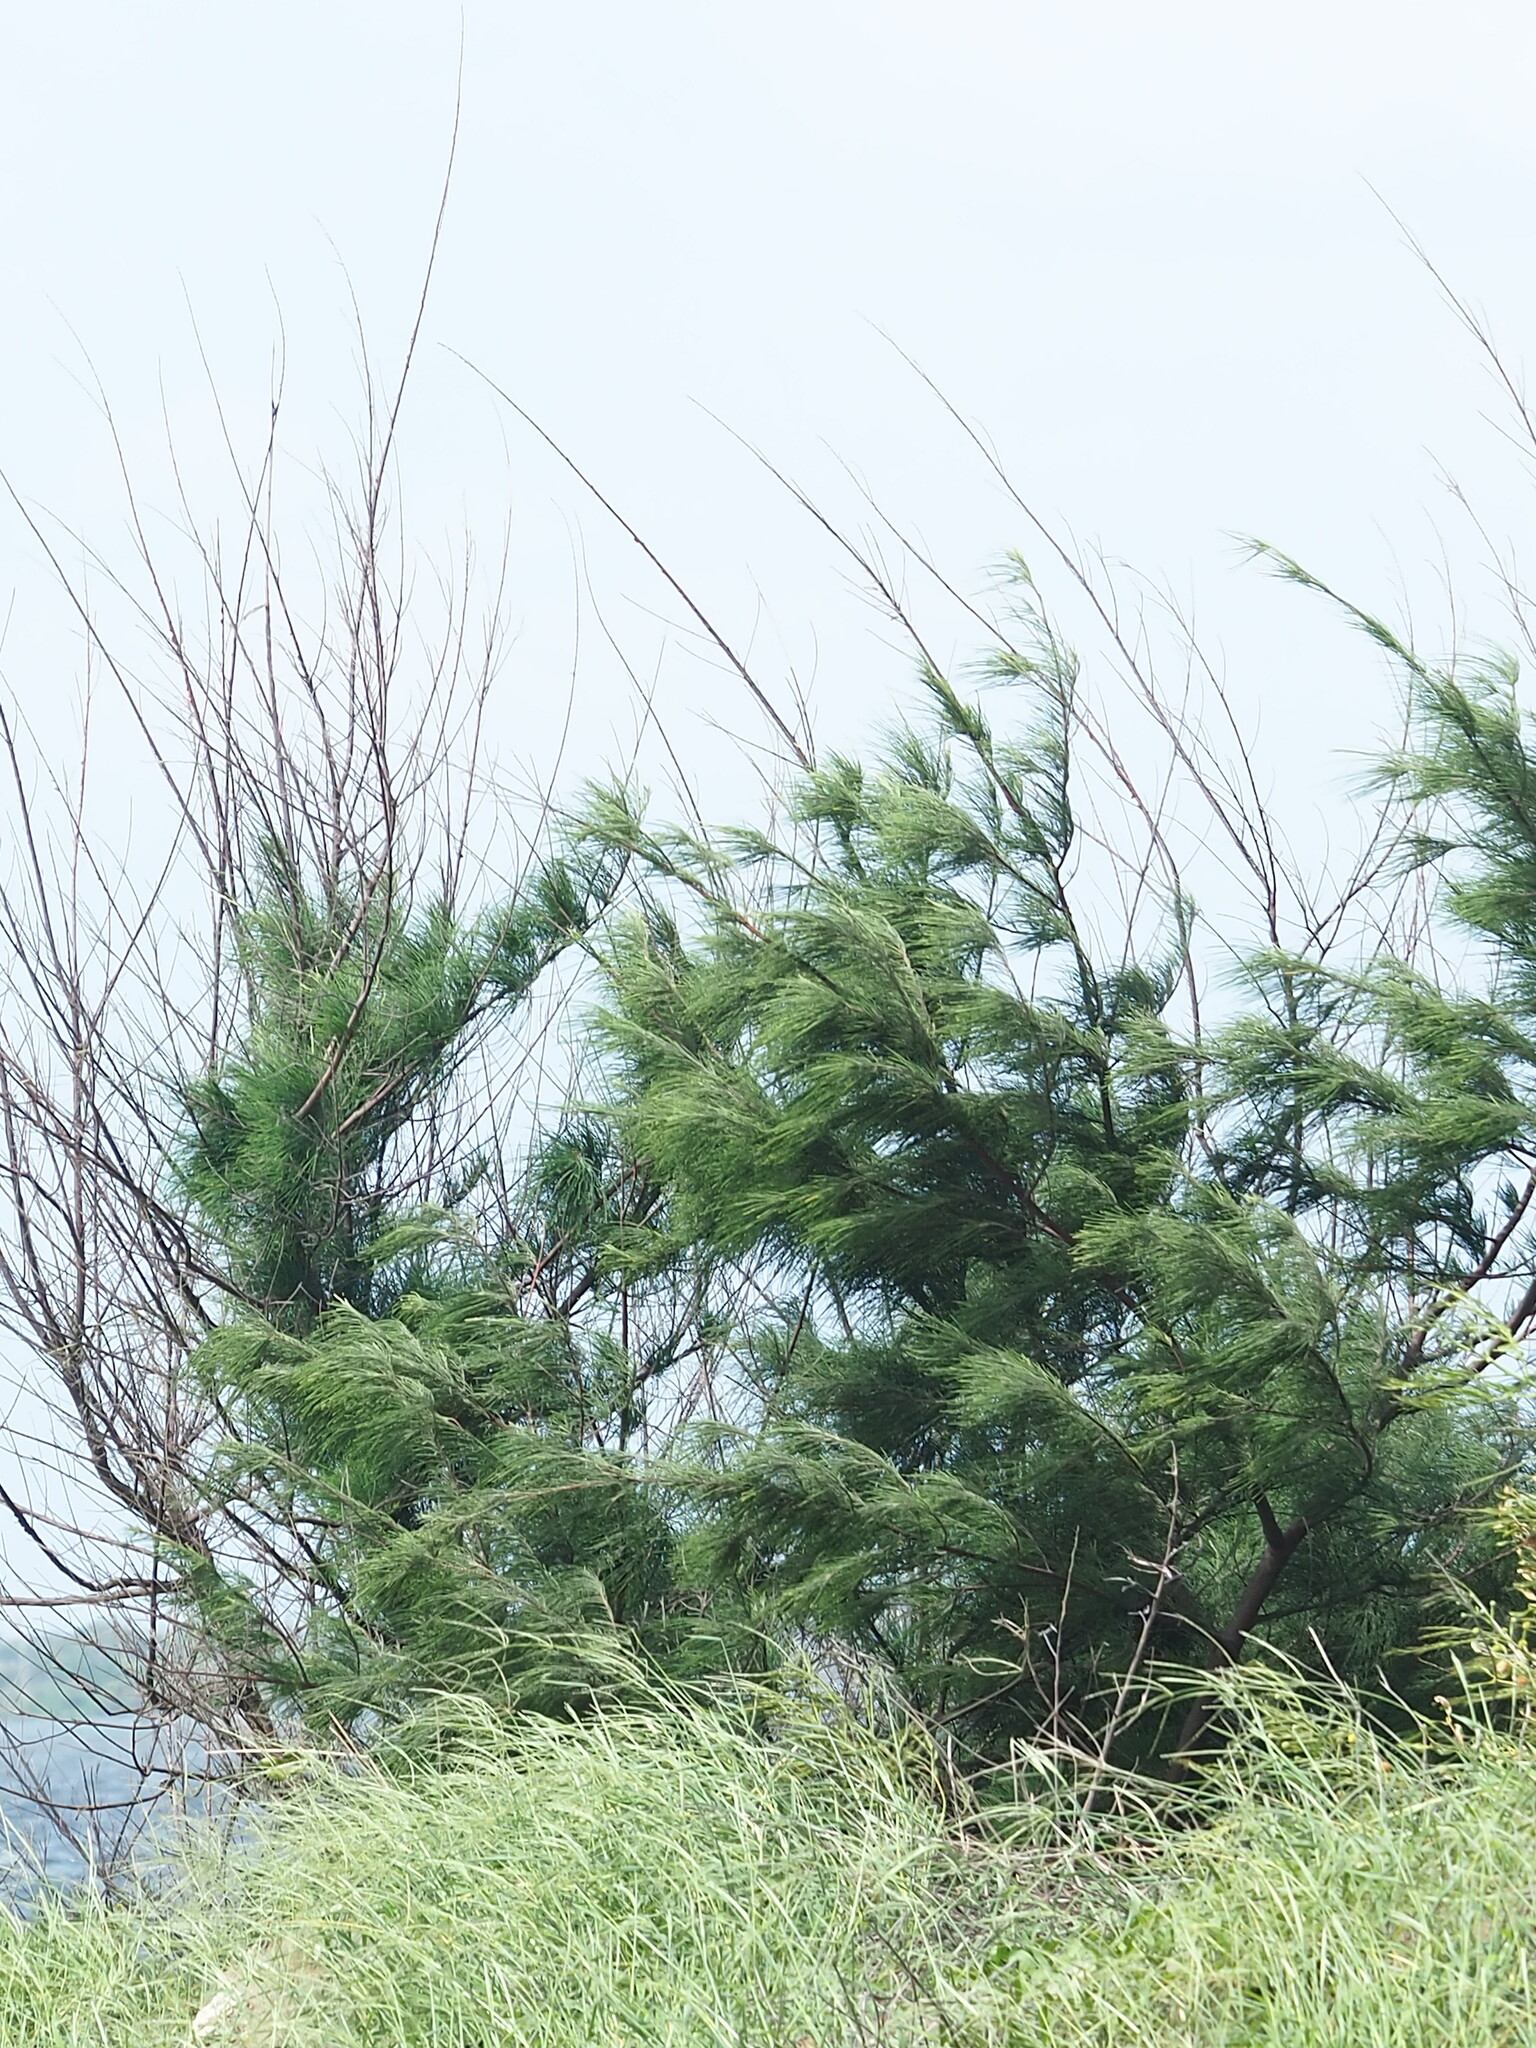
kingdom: Plantae
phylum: Tracheophyta
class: Magnoliopsida
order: Fagales
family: Casuarinaceae
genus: Casuarina
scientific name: Casuarina equisetifolia
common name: Beach sheoak
